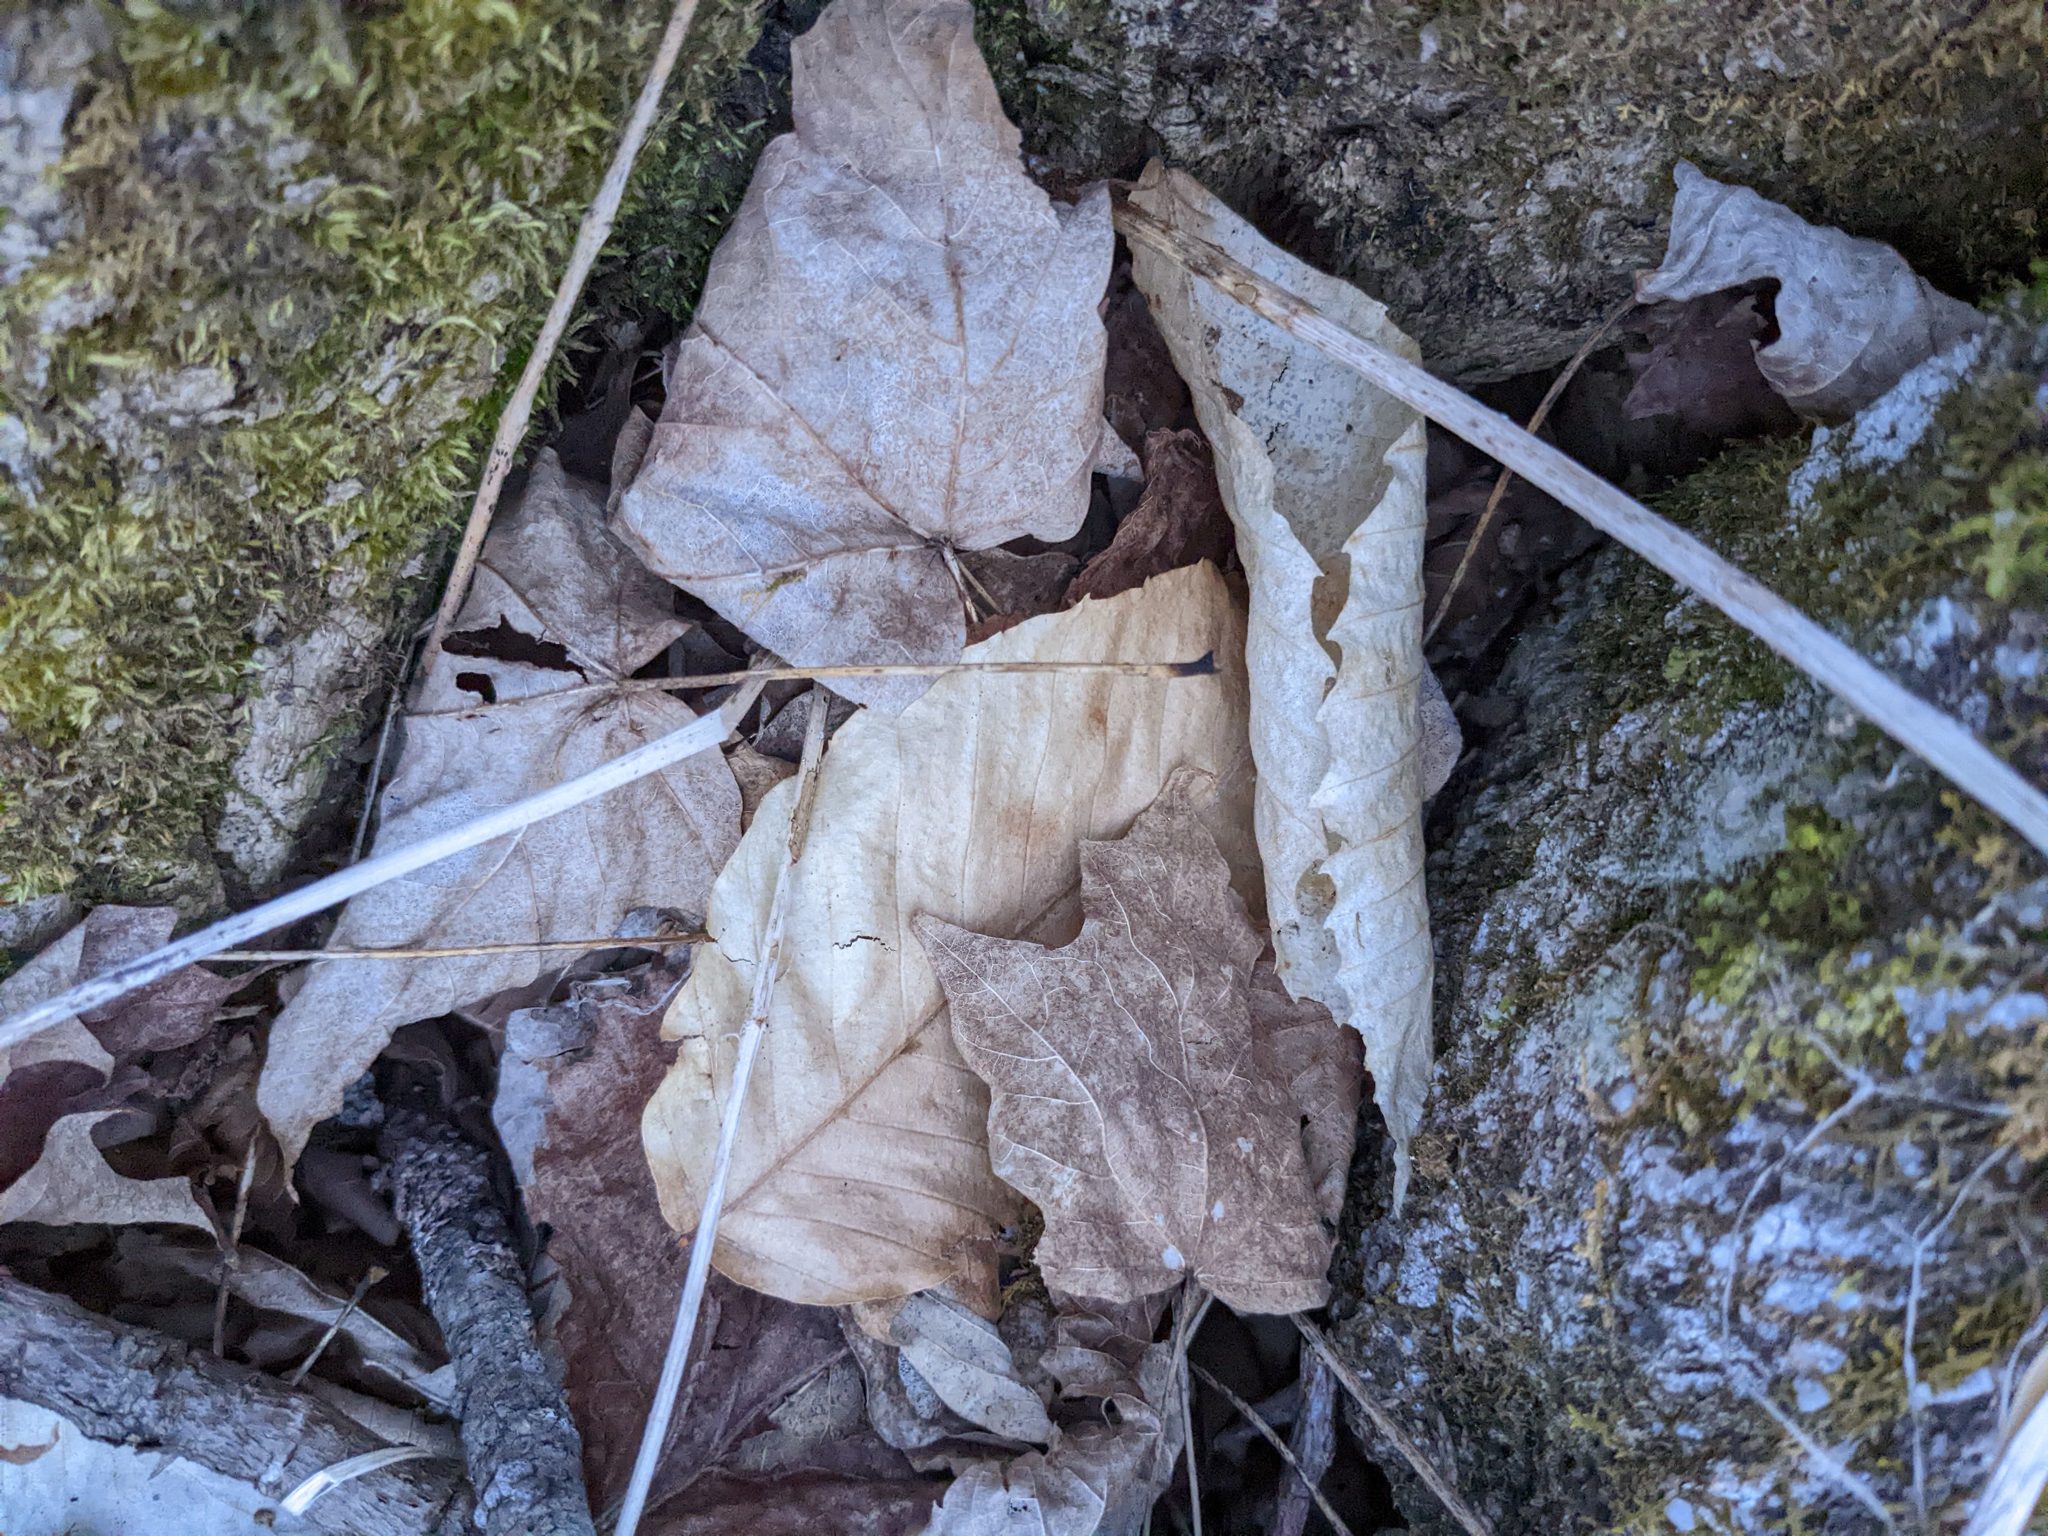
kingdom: Plantae
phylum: Tracheophyta
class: Magnoliopsida
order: Fagales
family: Fagaceae
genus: Fagus
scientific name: Fagus grandifolia
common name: American beech
